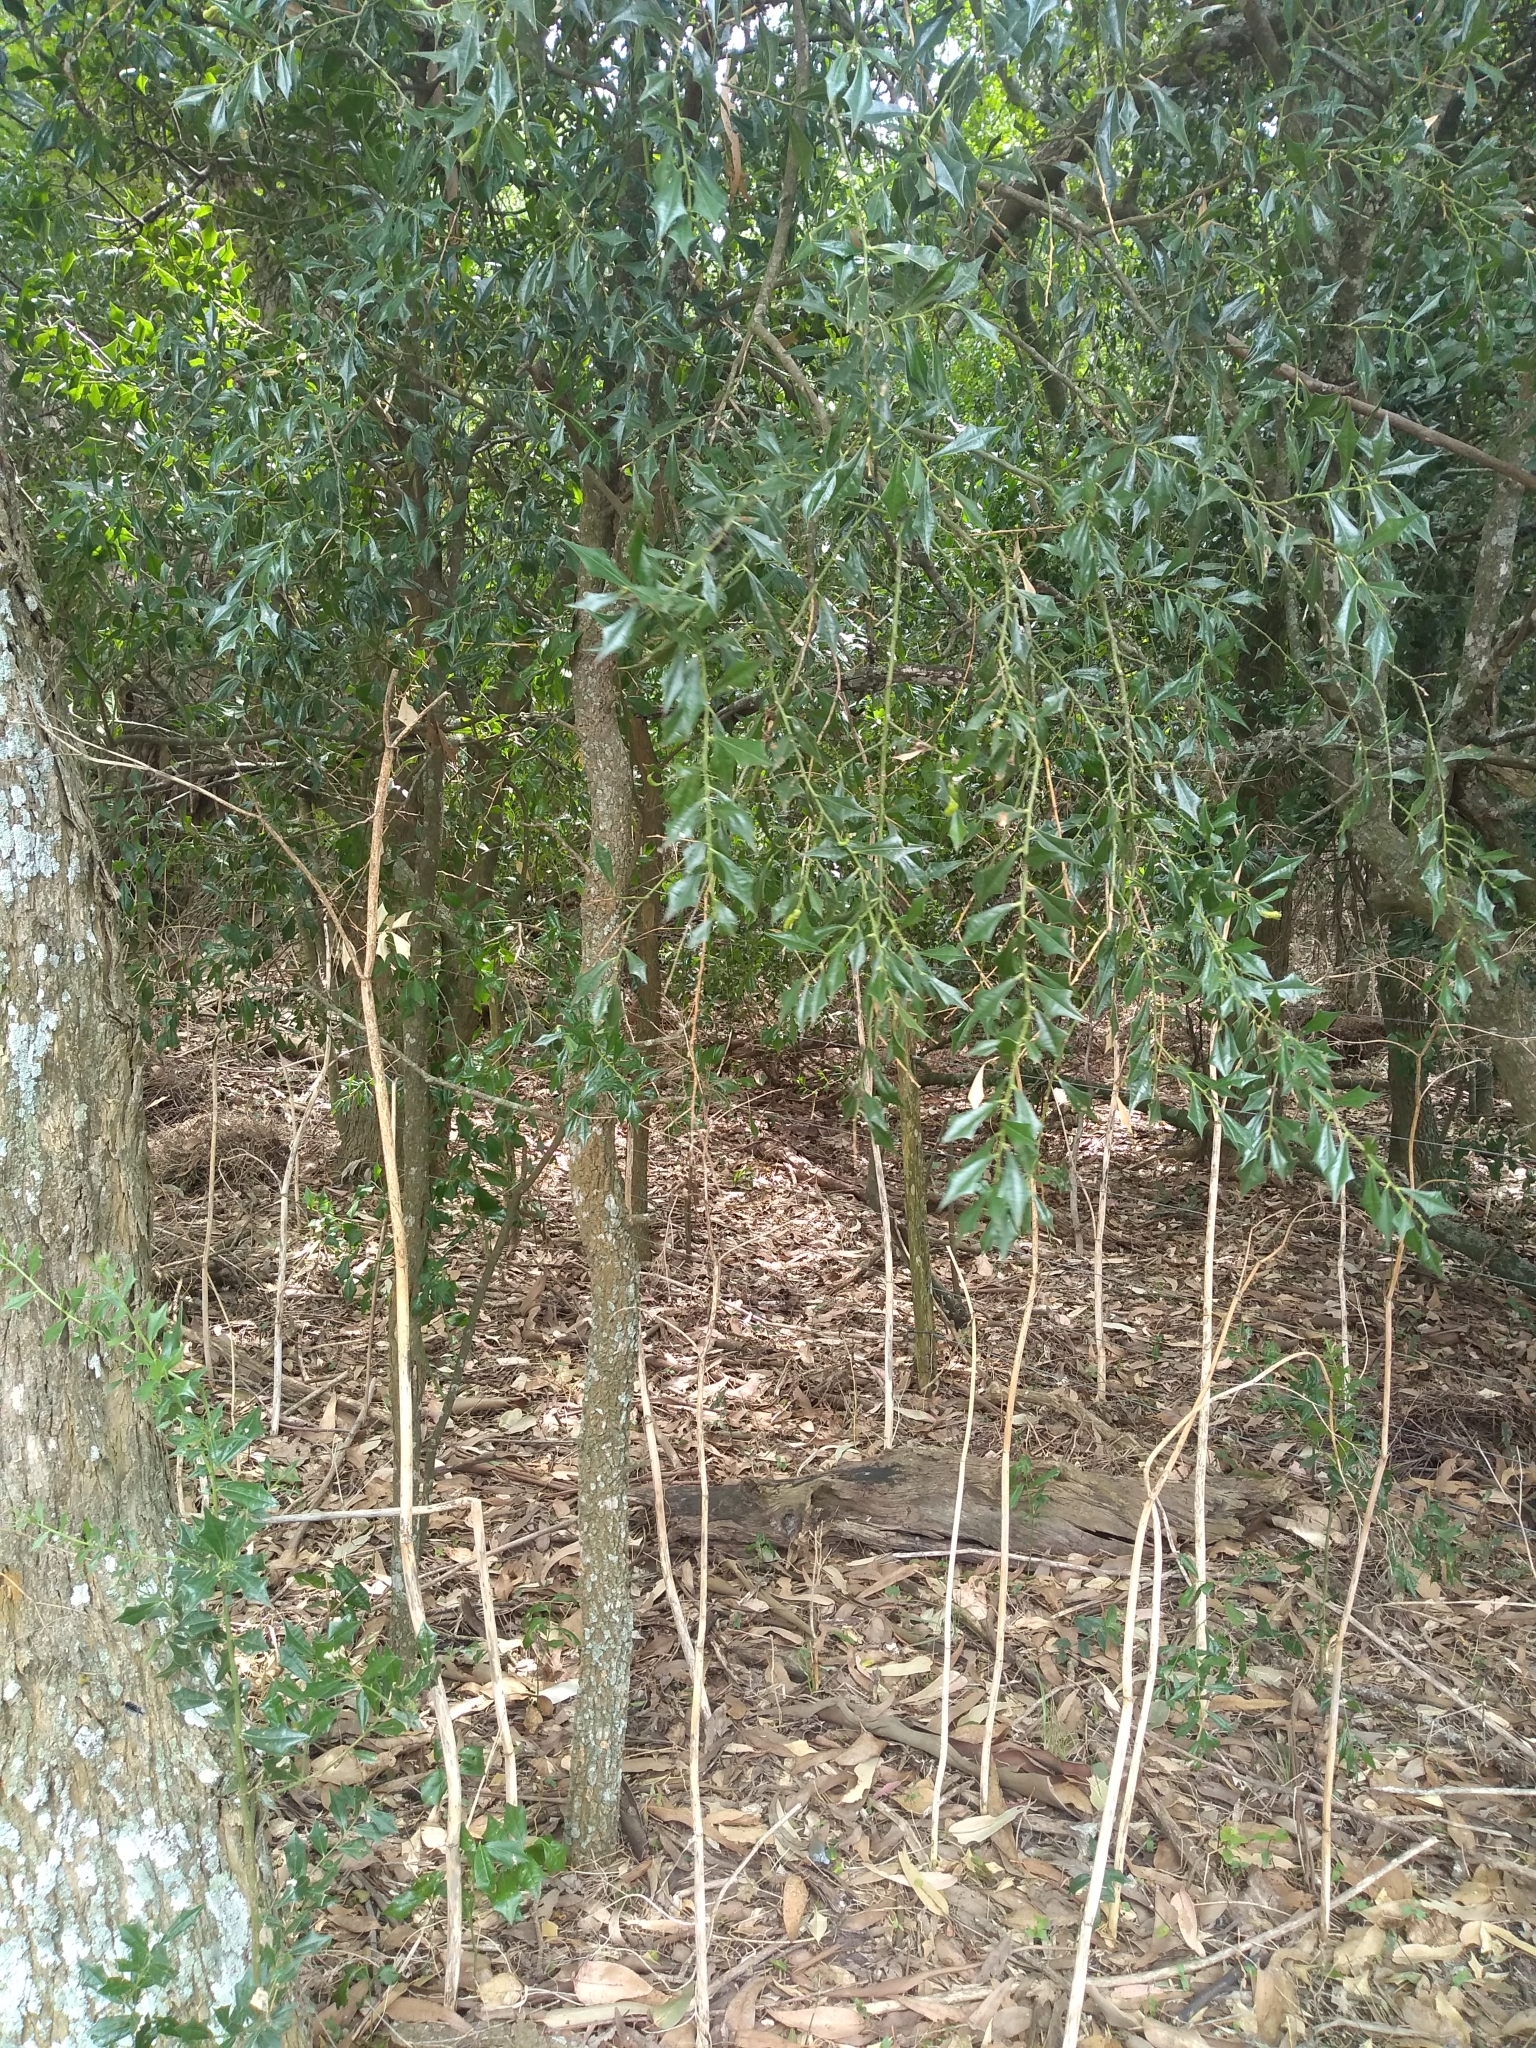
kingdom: Plantae
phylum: Tracheophyta
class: Magnoliopsida
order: Santalales
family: Cervantesiaceae
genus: Jodina
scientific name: Jodina rhombifolia
